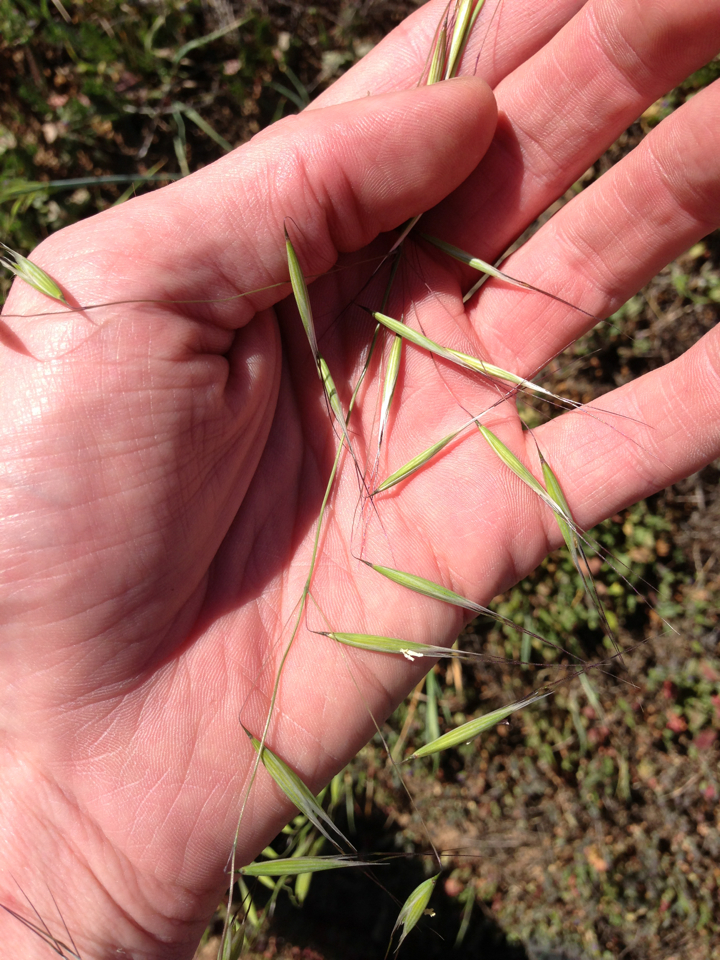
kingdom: Plantae
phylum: Tracheophyta
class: Liliopsida
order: Poales
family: Poaceae
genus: Avena
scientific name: Avena barbata
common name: Slender oat
